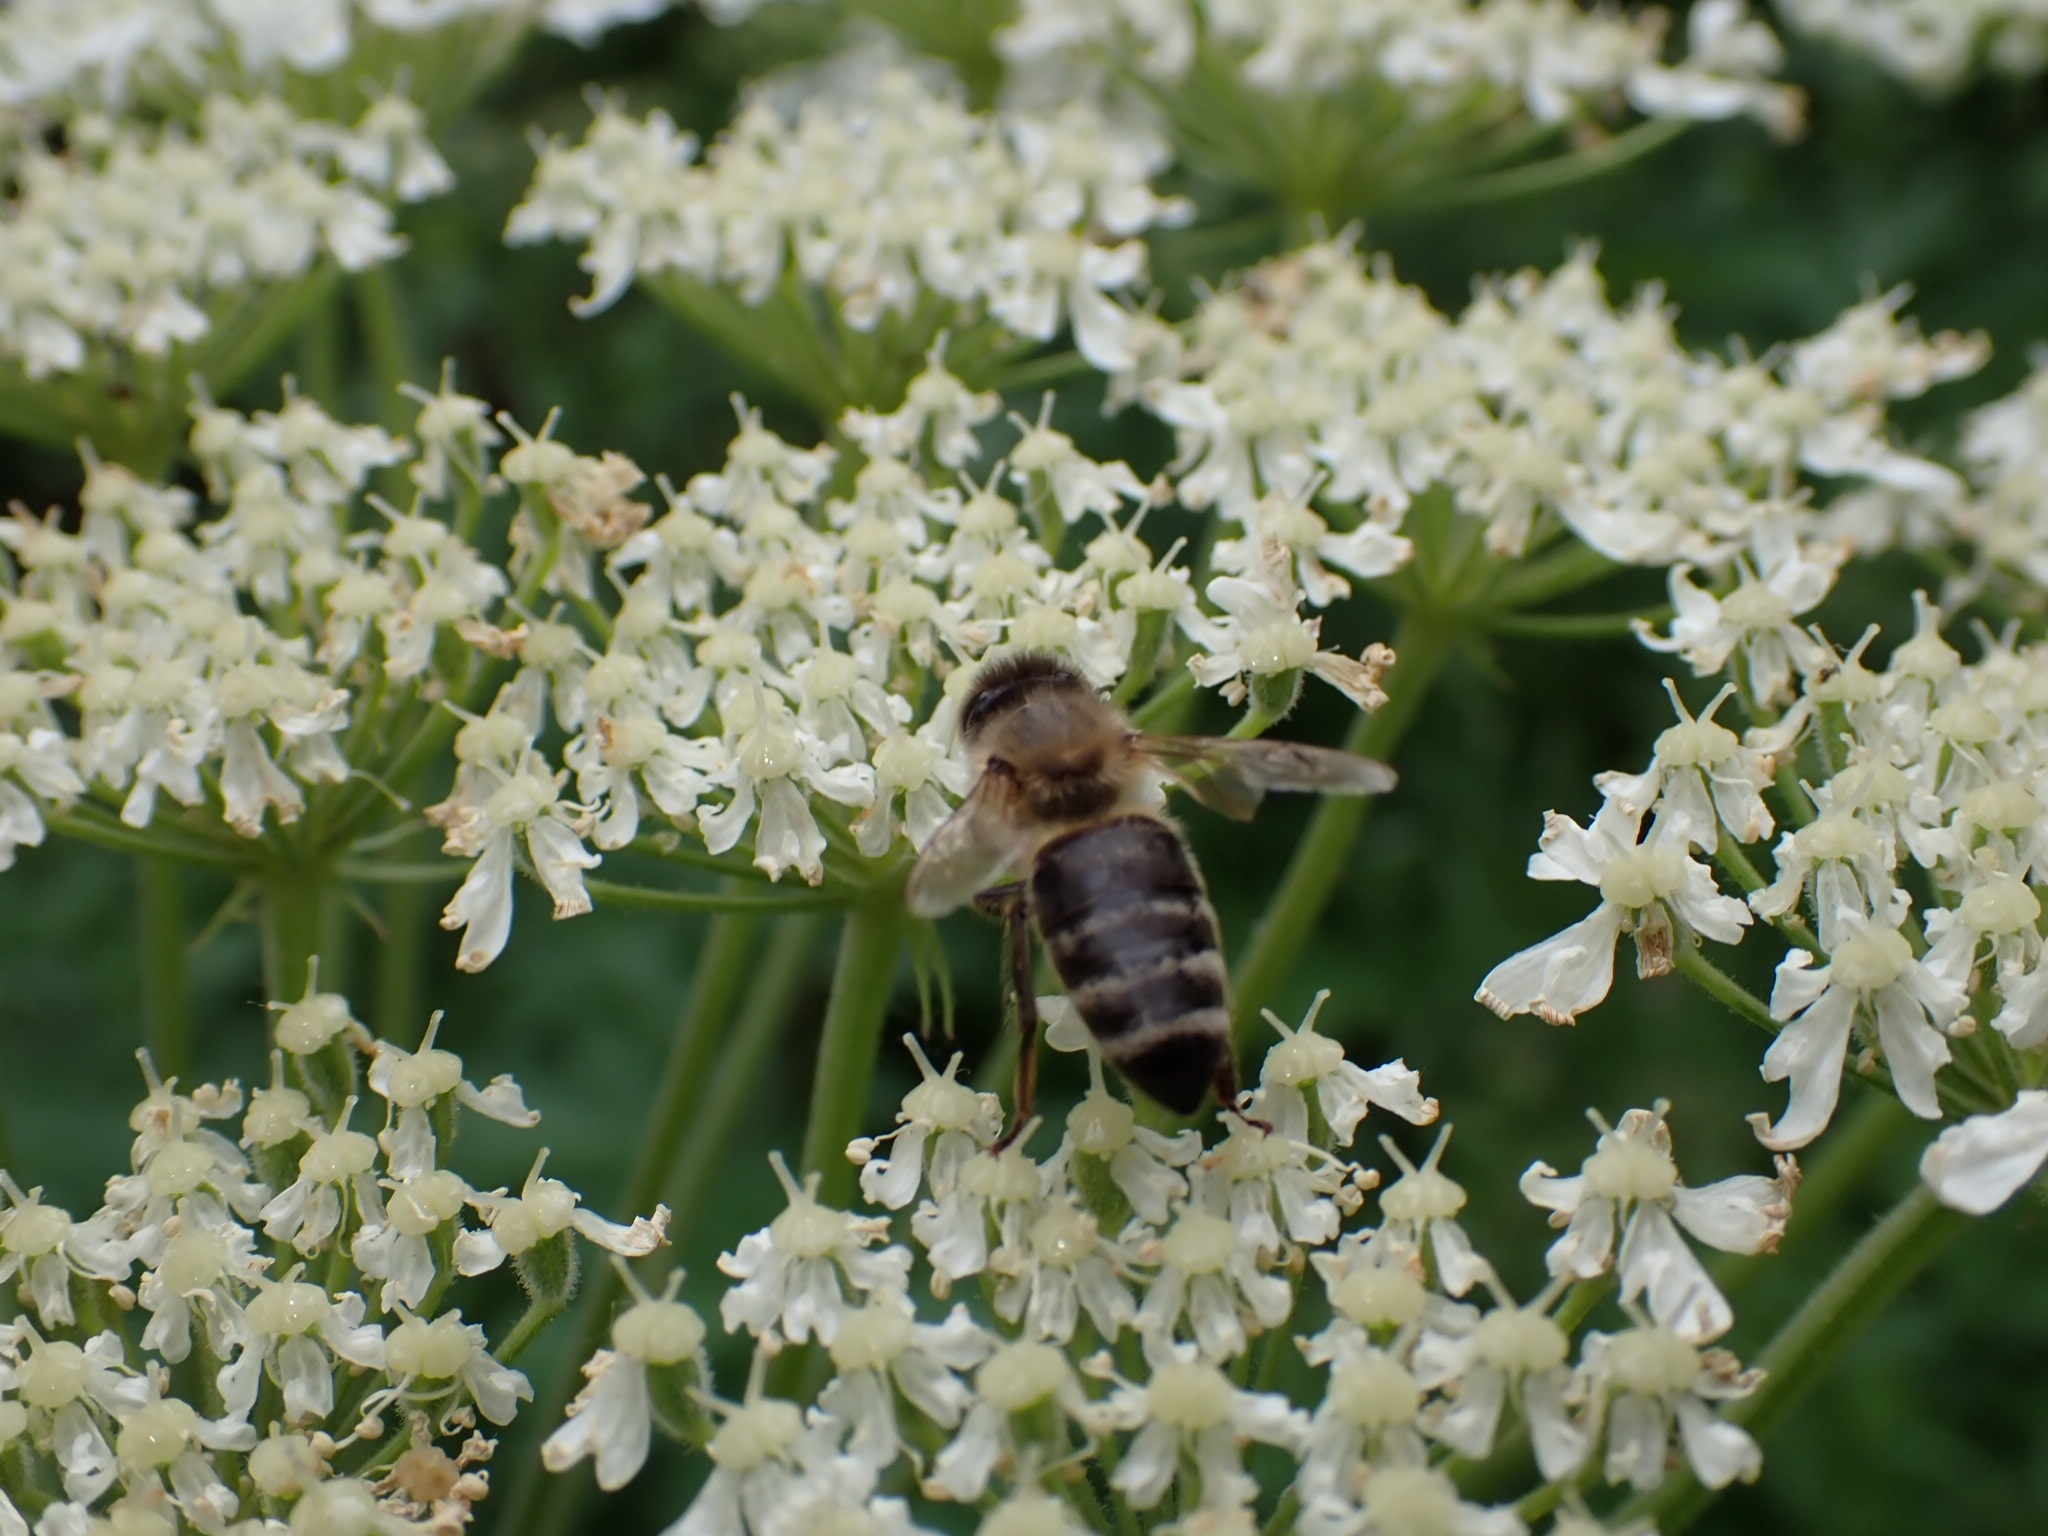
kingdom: Animalia
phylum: Arthropoda
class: Insecta
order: Hymenoptera
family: Apidae
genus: Apis
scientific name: Apis mellifera
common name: Honey bee
